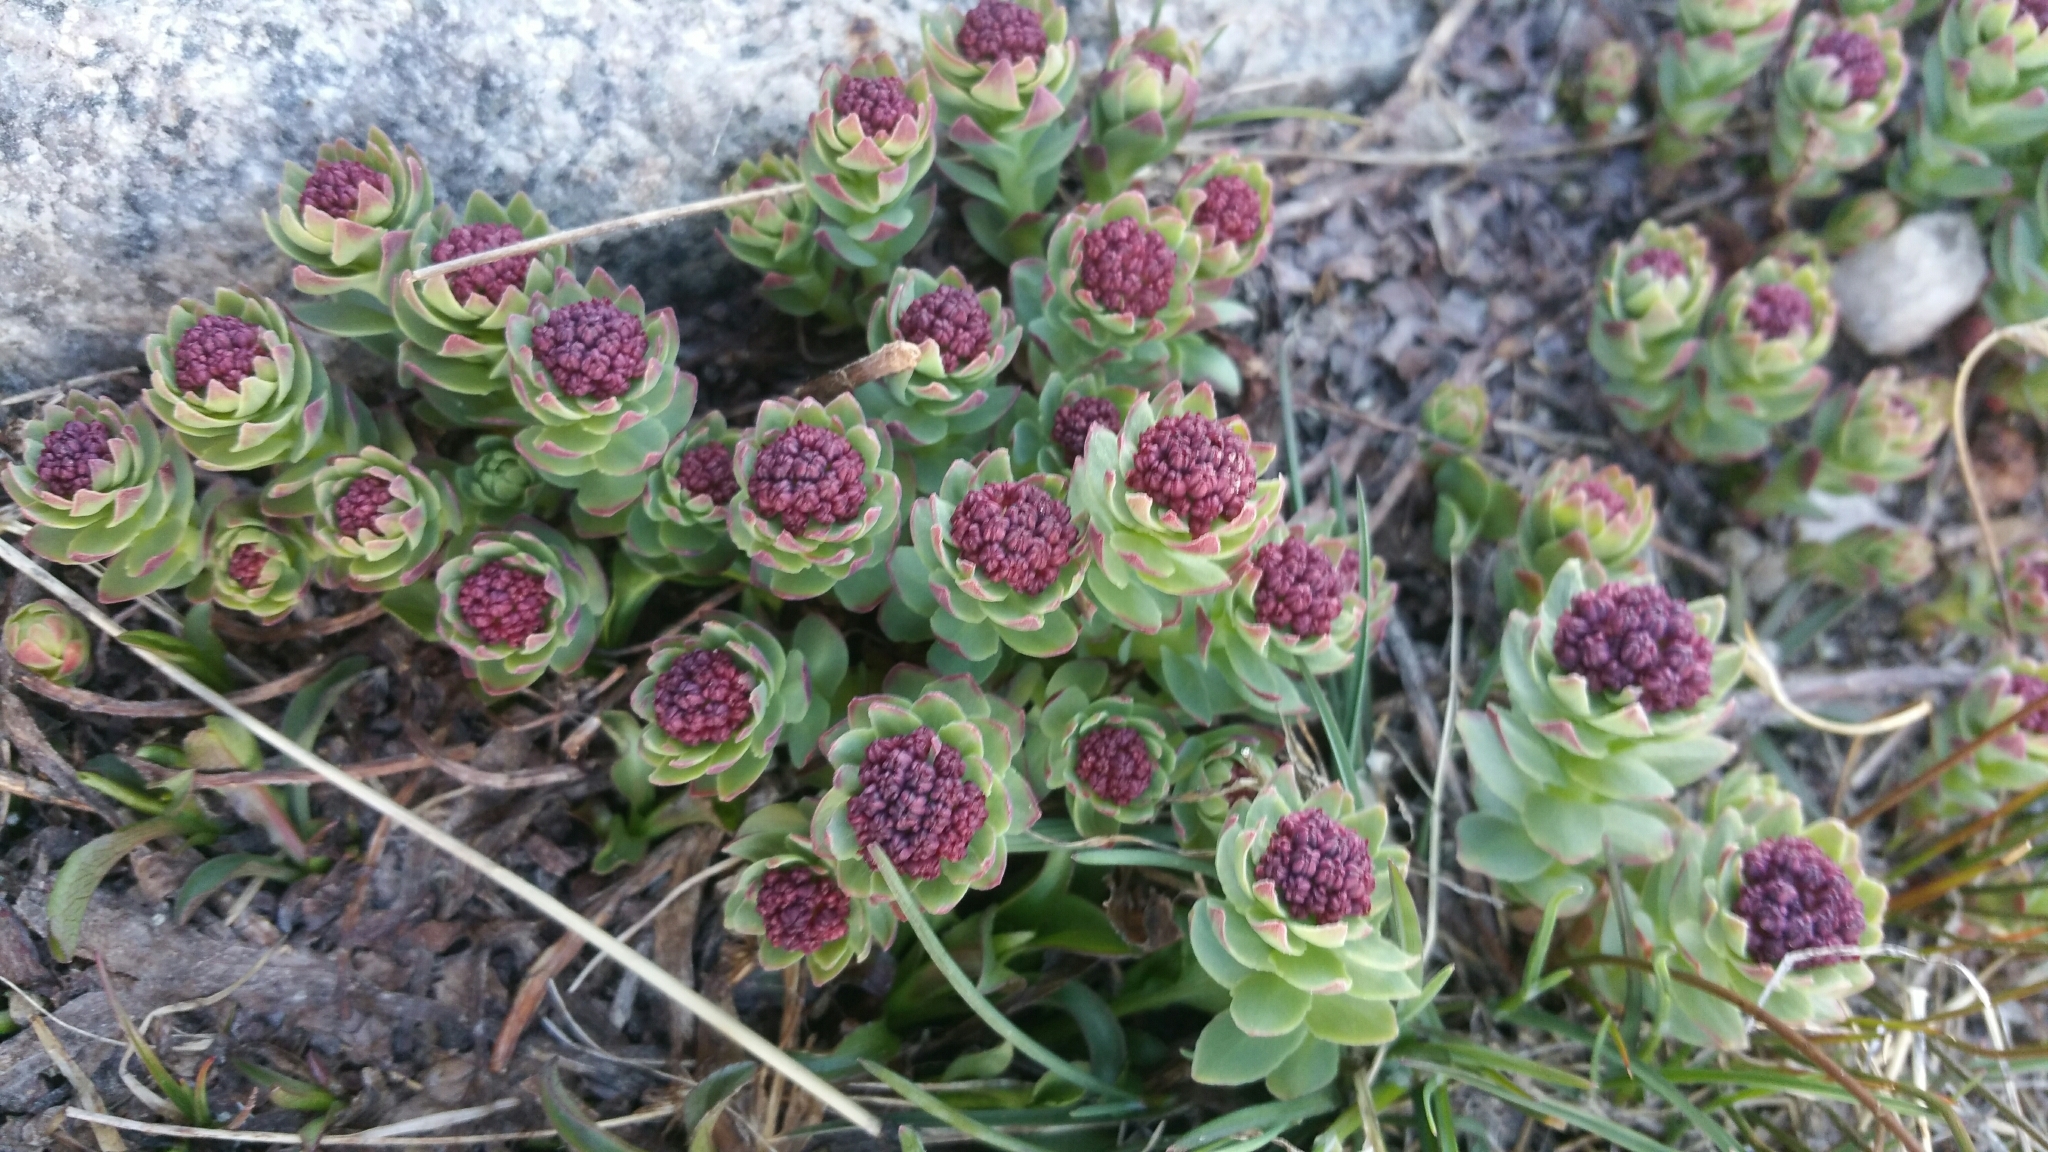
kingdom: Plantae
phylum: Tracheophyta
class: Magnoliopsida
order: Saxifragales
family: Crassulaceae
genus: Rhodiola
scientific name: Rhodiola integrifolia
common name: Western roseroot
